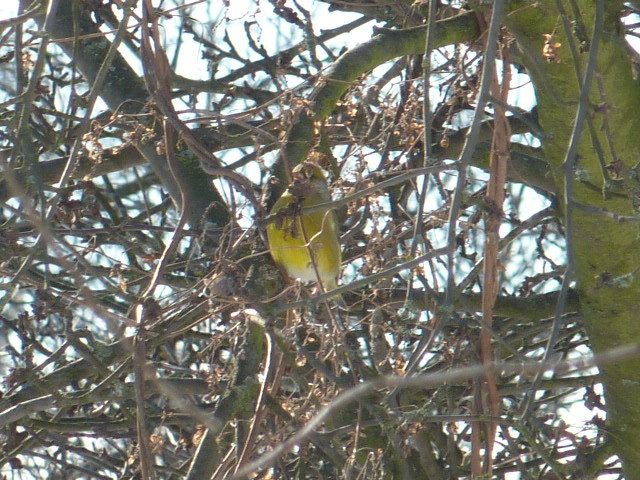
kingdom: Plantae
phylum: Tracheophyta
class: Liliopsida
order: Poales
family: Poaceae
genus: Chloris
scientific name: Chloris chloris
